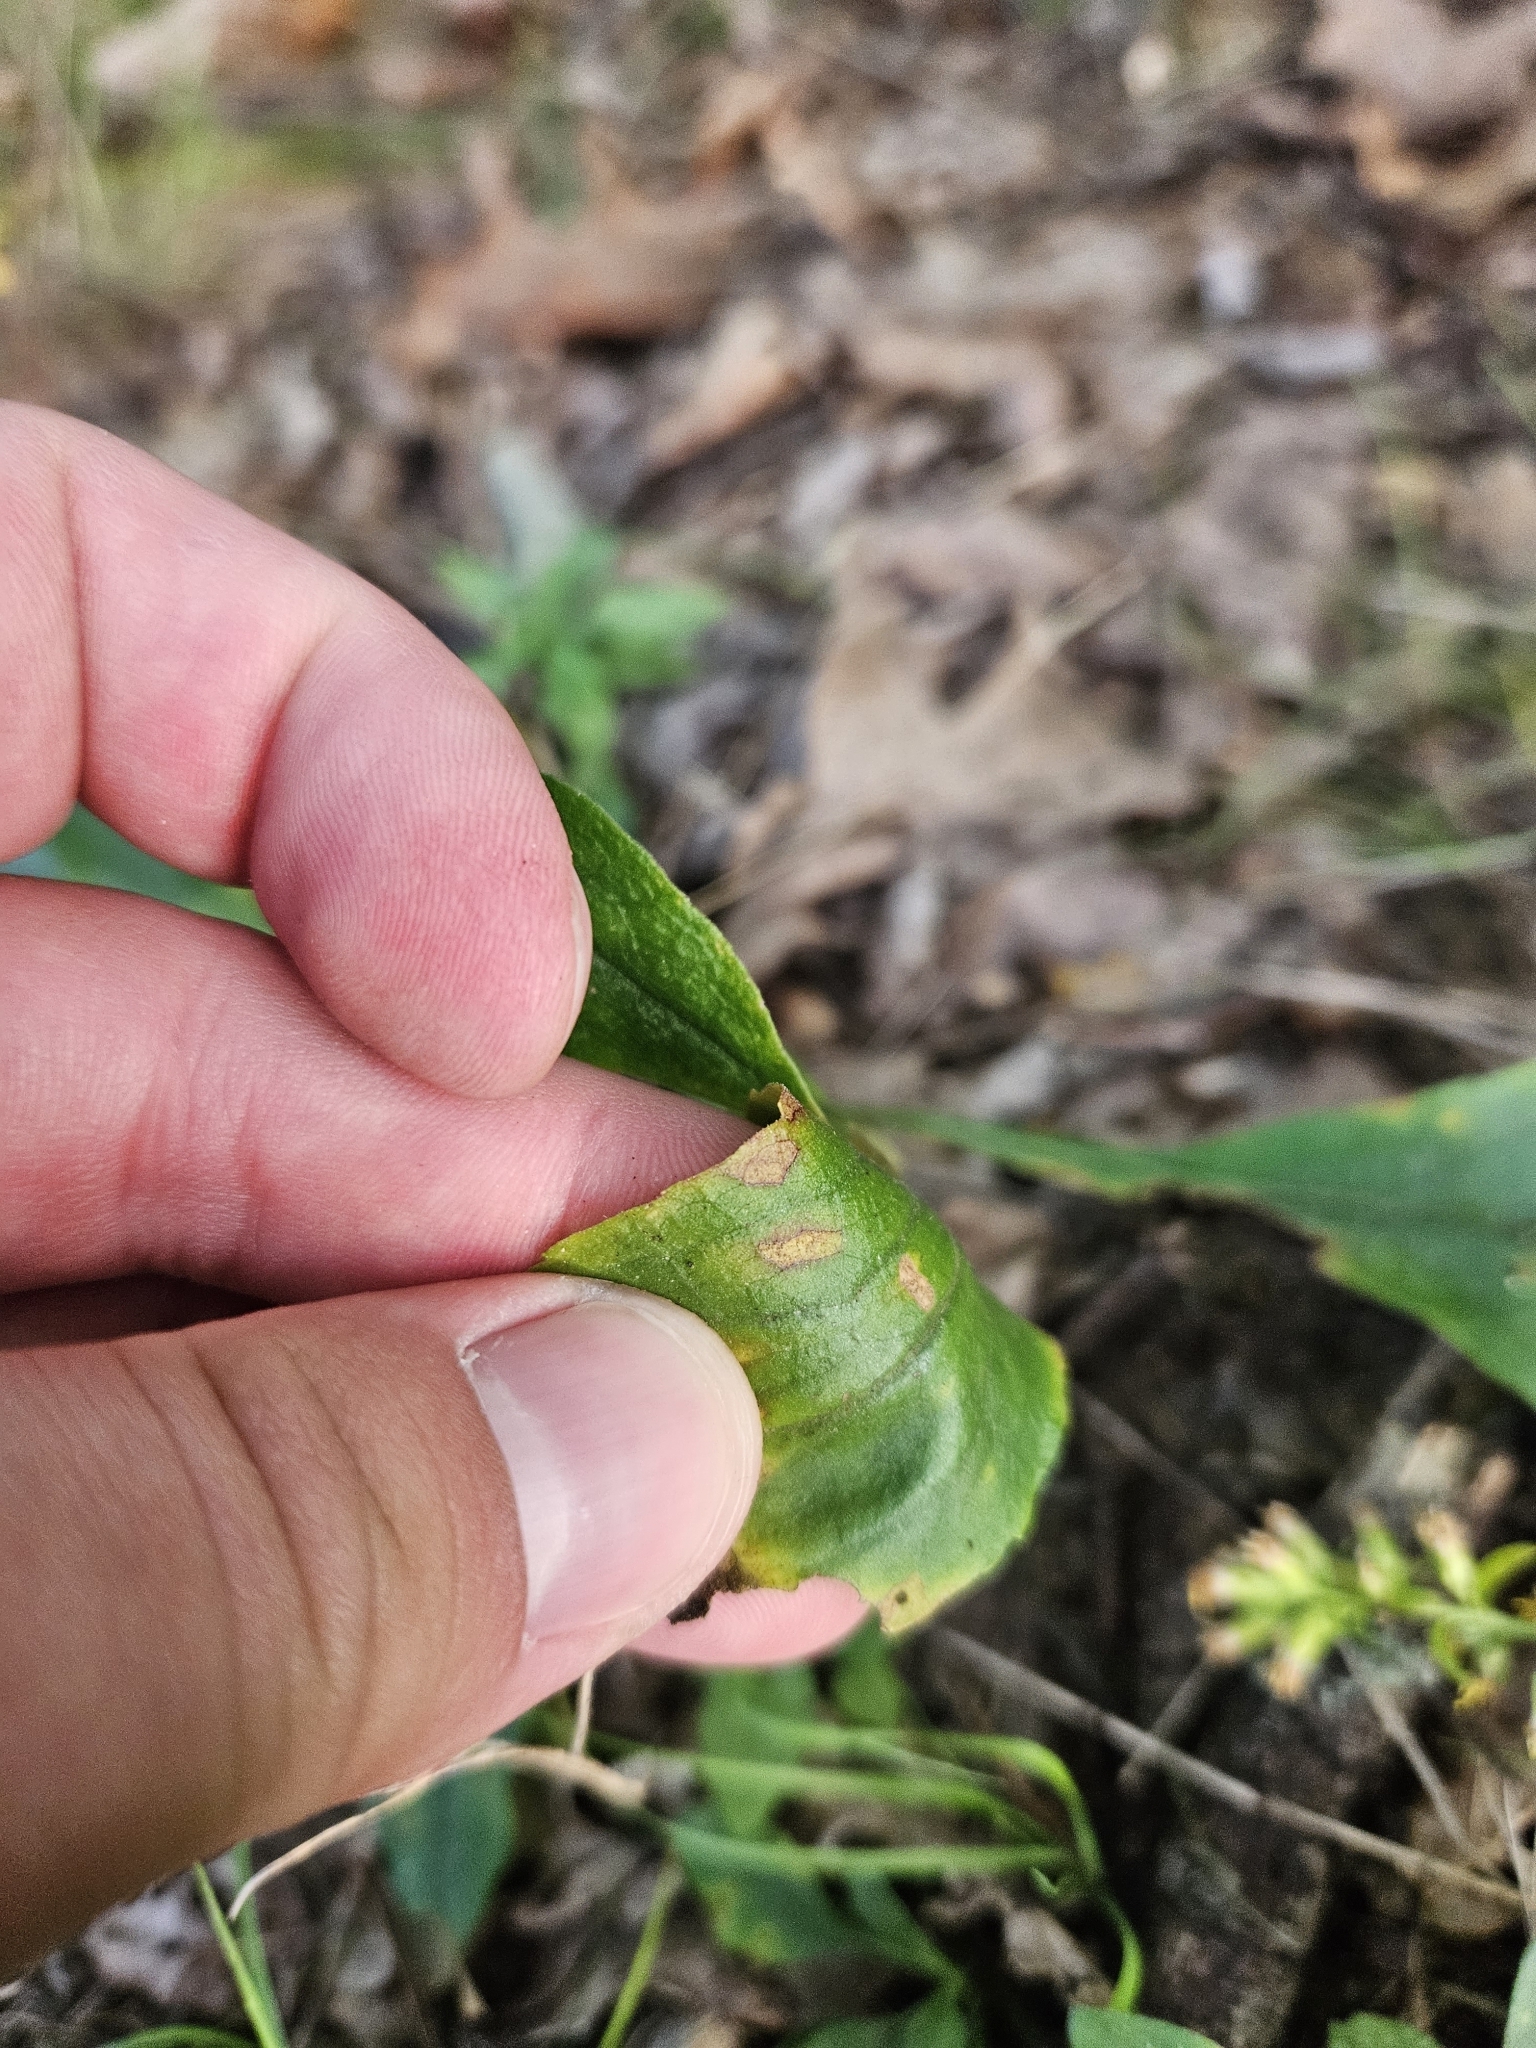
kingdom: Plantae
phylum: Tracheophyta
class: Magnoliopsida
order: Asterales
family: Asteraceae
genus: Solidago
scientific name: Solidago bicolor
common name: Silverrod
